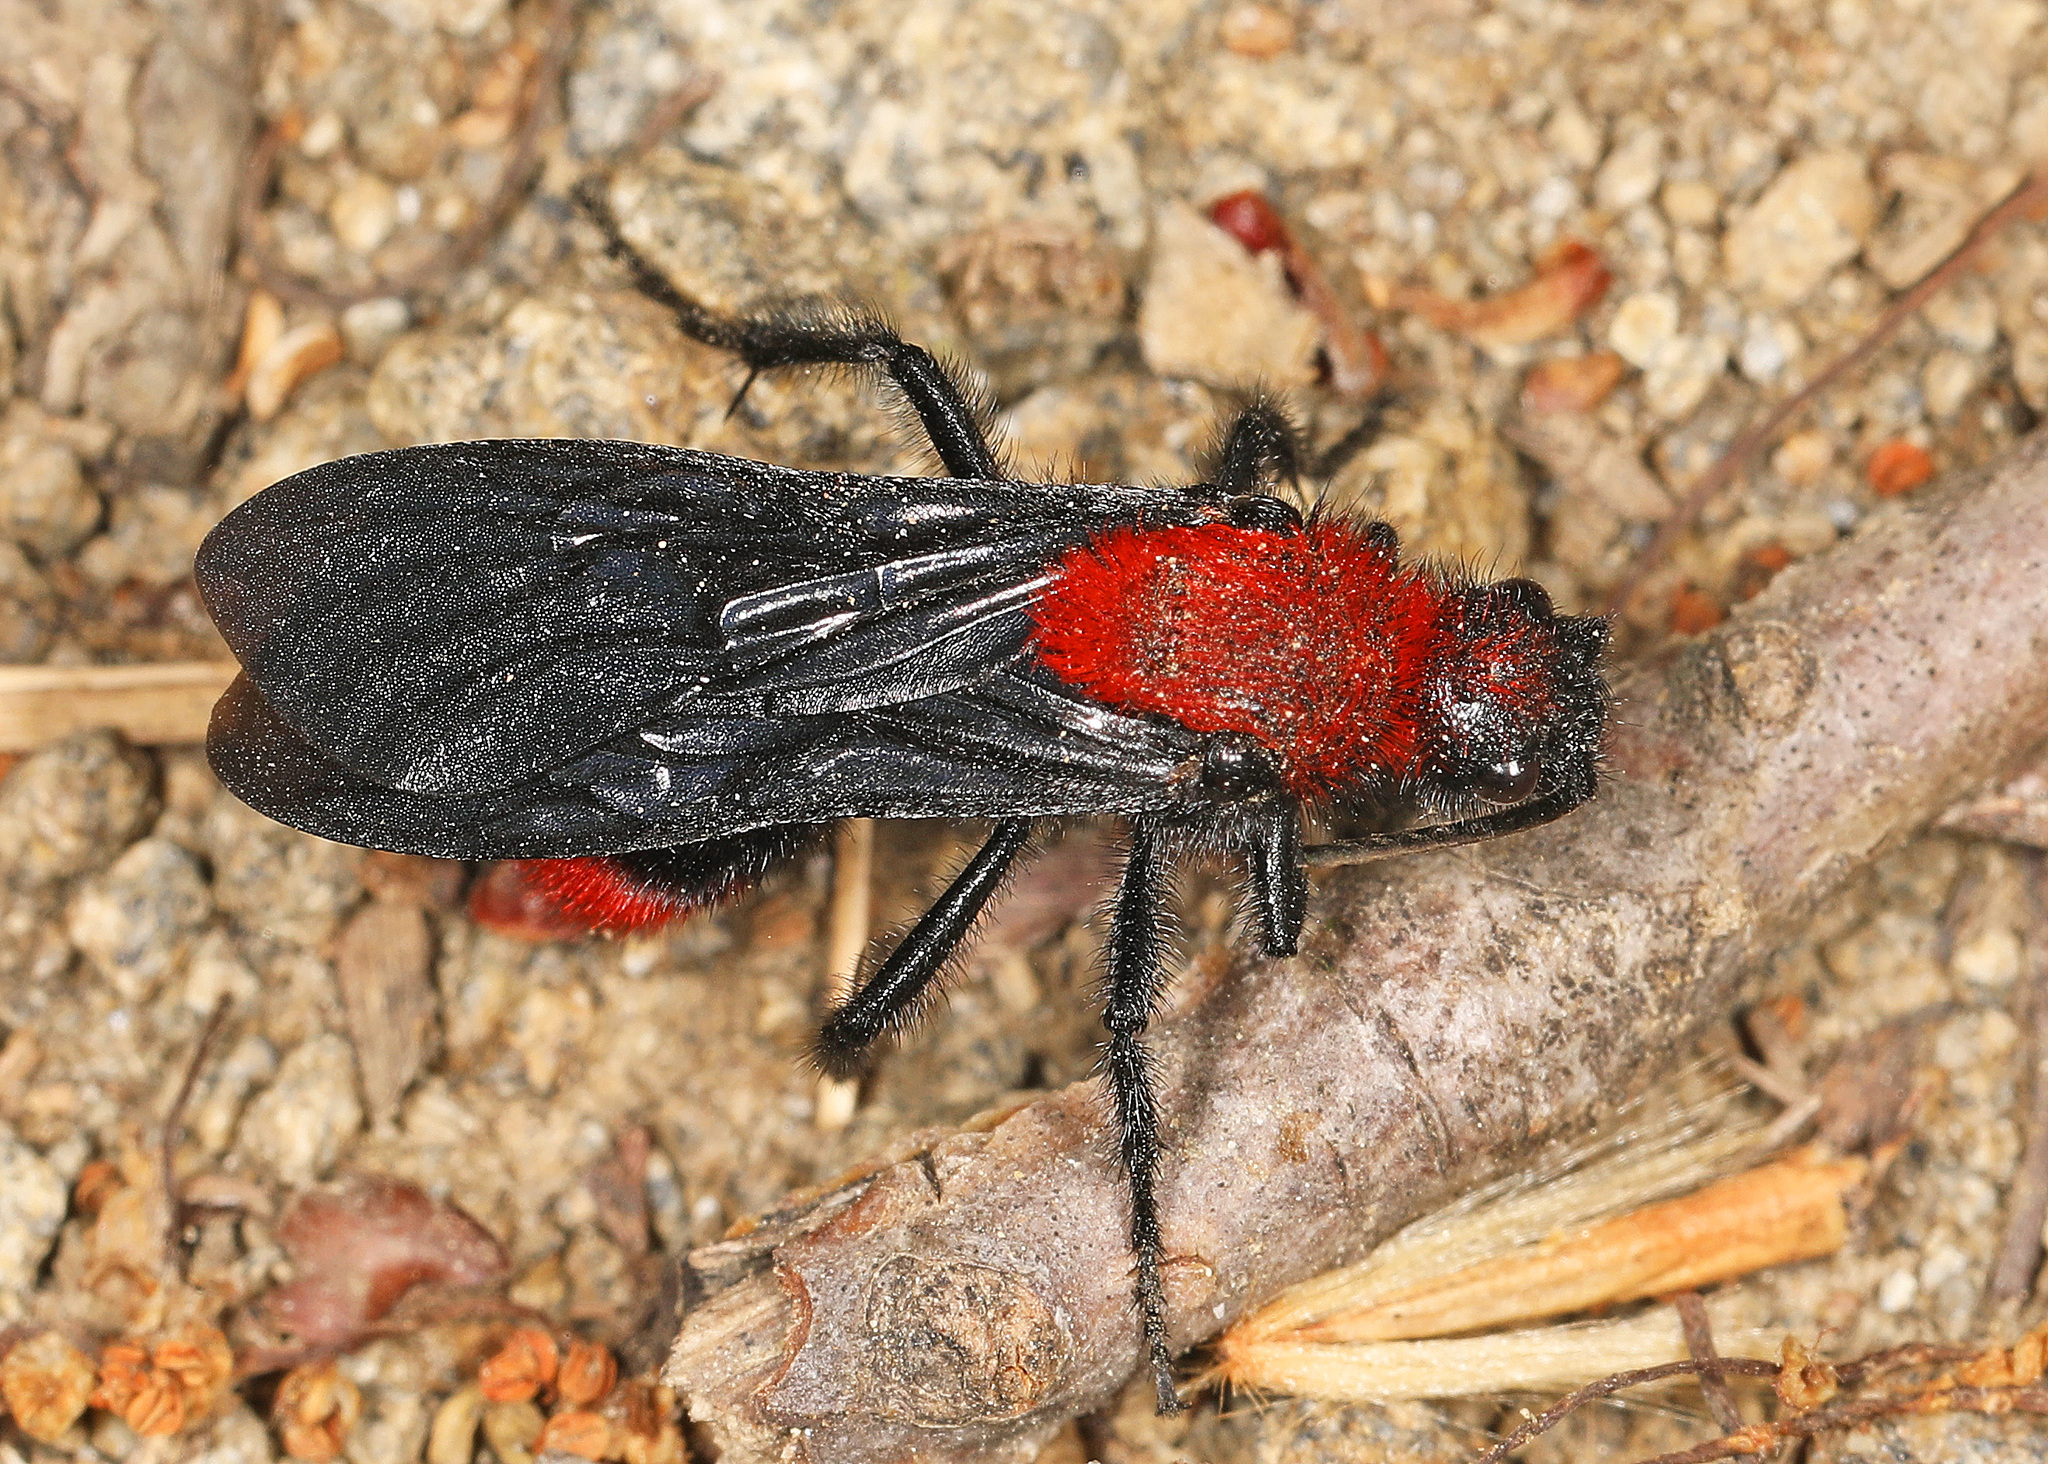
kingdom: Animalia
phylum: Arthropoda
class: Insecta
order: Hymenoptera
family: Mutillidae
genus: Dasymutilla
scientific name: Dasymutilla occidentalis
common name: Common eastern velvet ant
